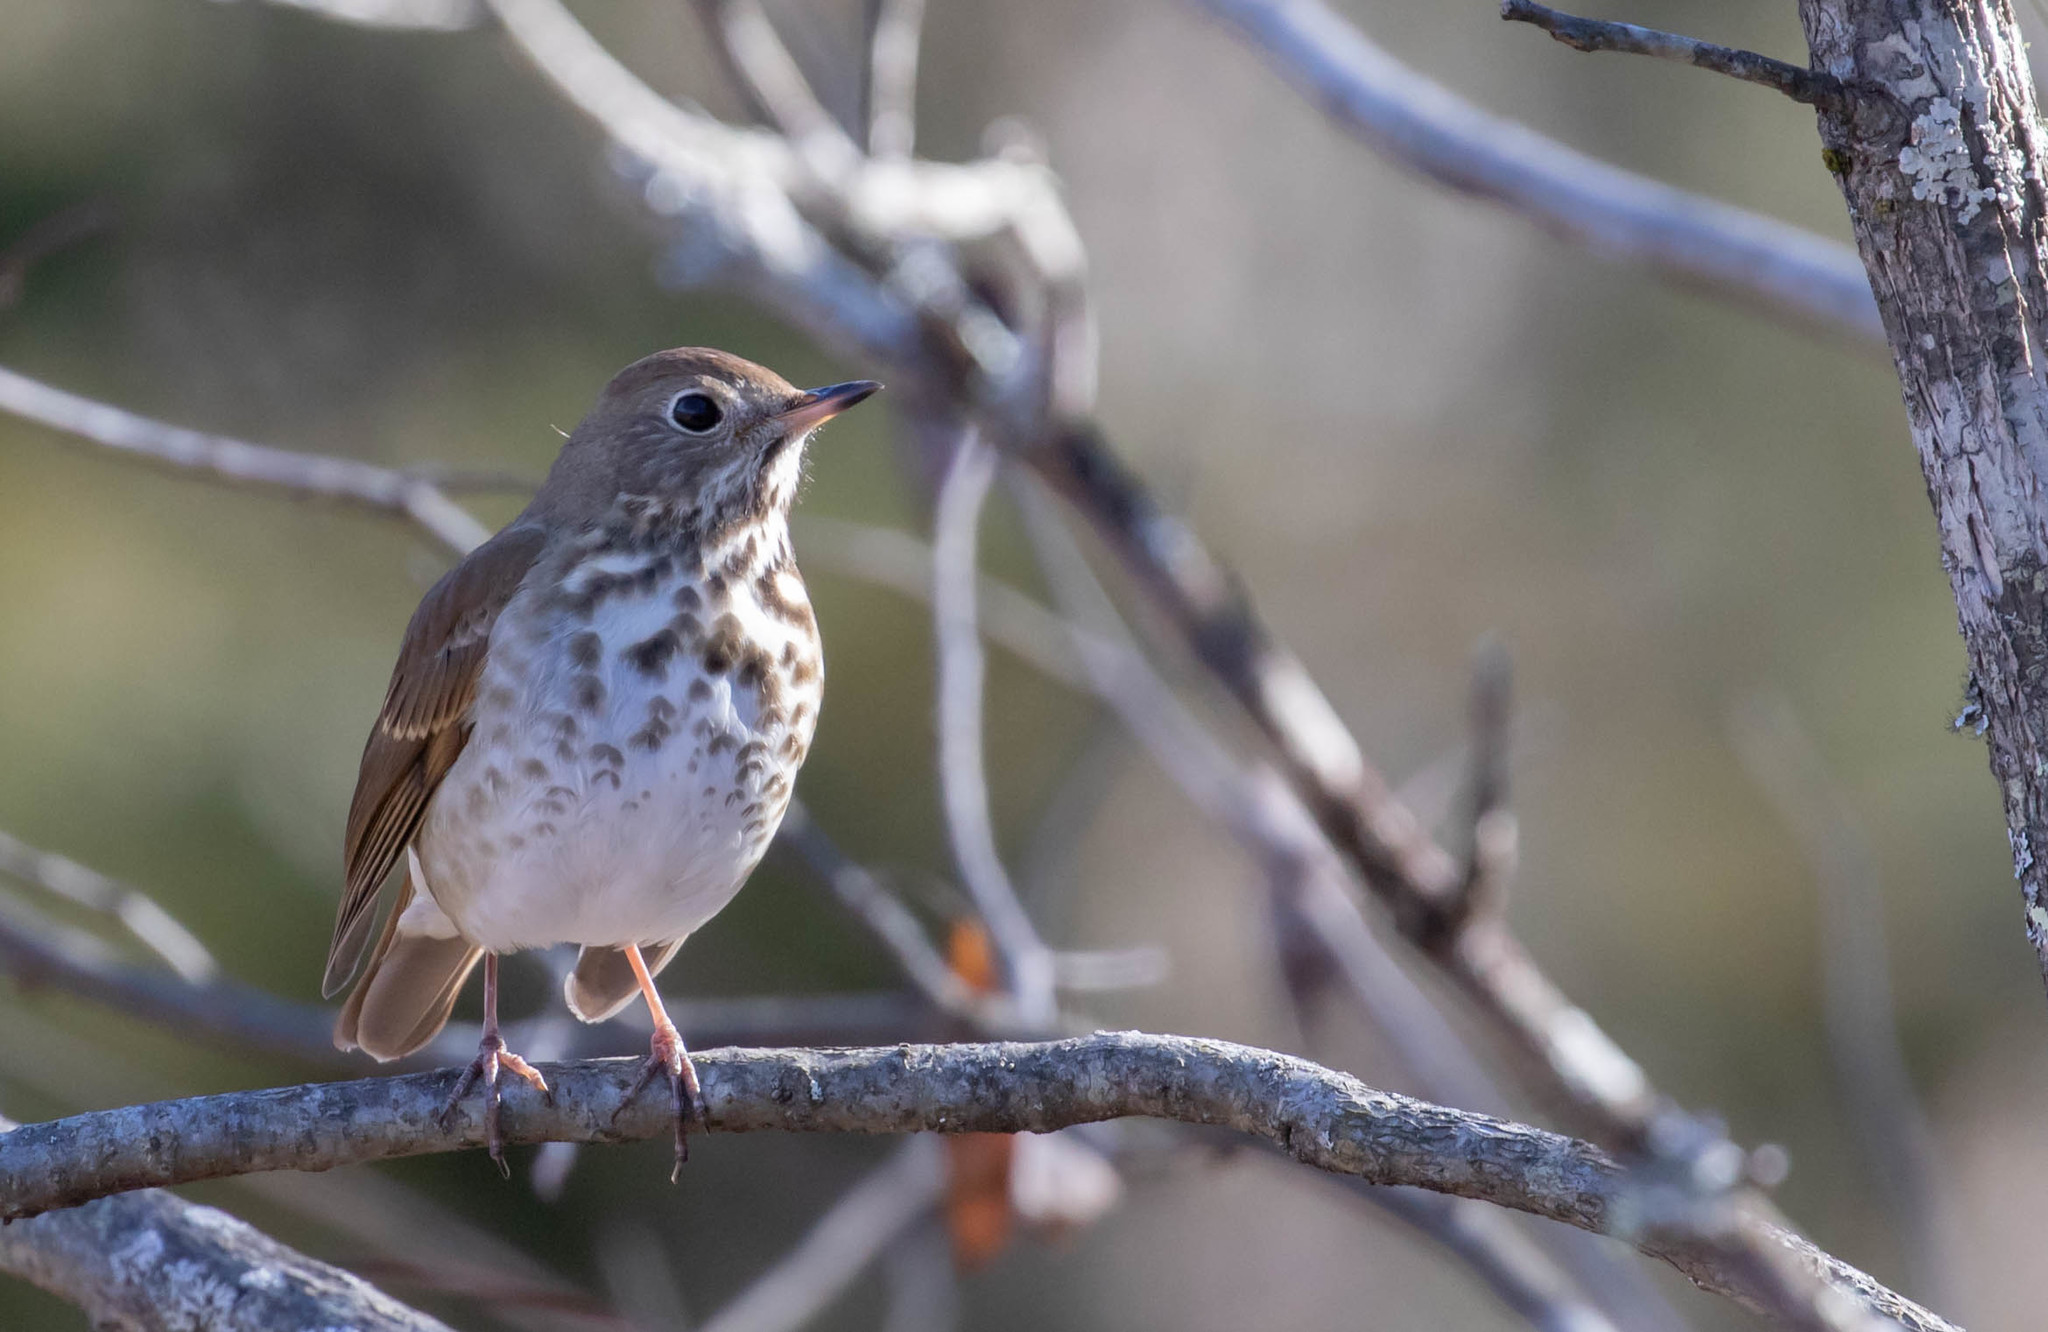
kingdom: Animalia
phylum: Chordata
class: Aves
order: Passeriformes
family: Turdidae
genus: Catharus
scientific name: Catharus guttatus
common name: Hermit thrush
